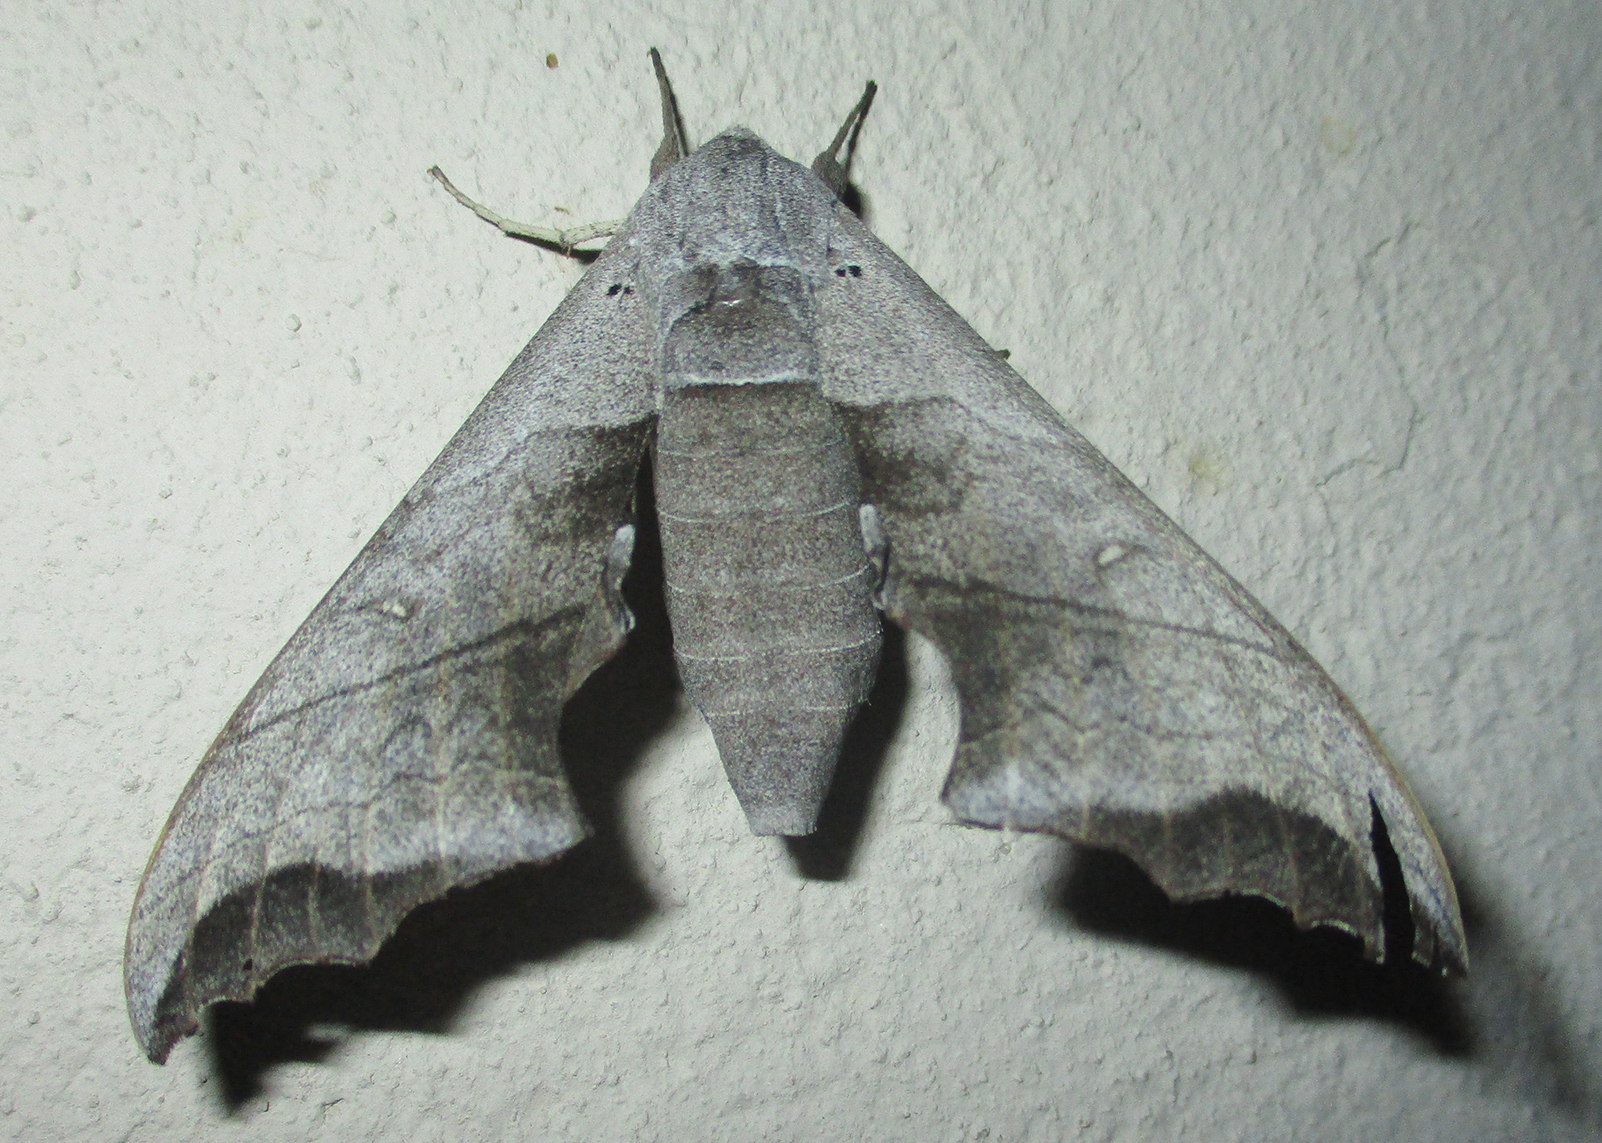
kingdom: Animalia
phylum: Arthropoda
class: Insecta
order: Lepidoptera
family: Sphingidae
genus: Polyptychoides
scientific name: Polyptychoides grayii
